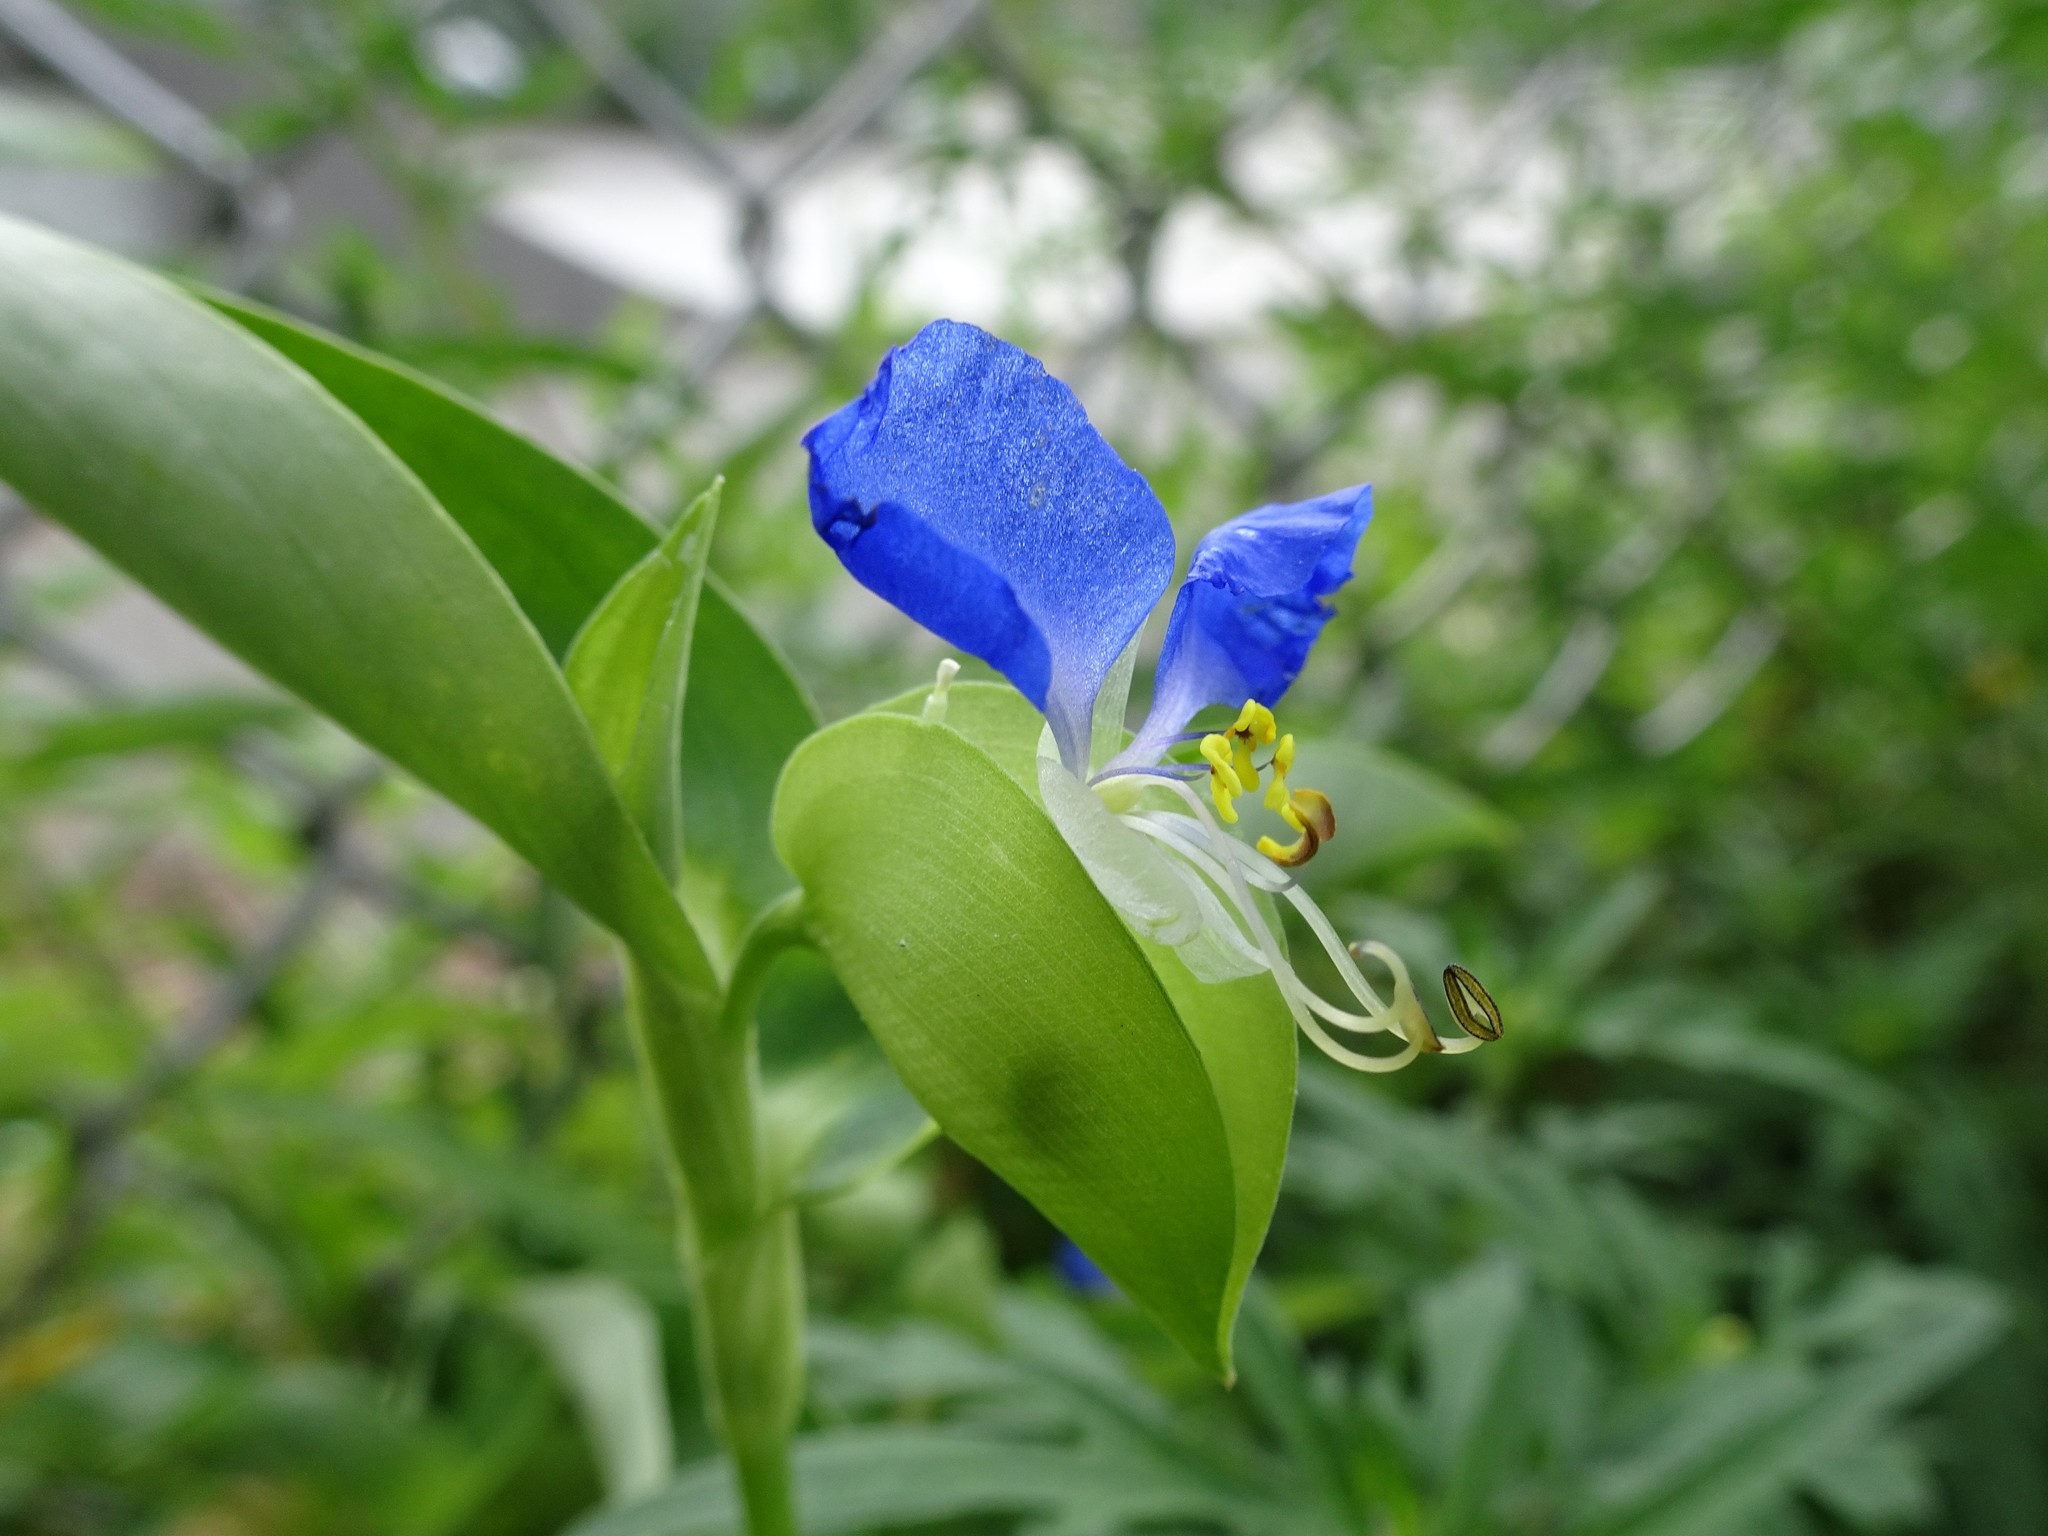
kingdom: Plantae
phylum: Tracheophyta
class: Liliopsida
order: Commelinales
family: Commelinaceae
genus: Commelina
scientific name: Commelina communis
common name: Asiatic dayflower
